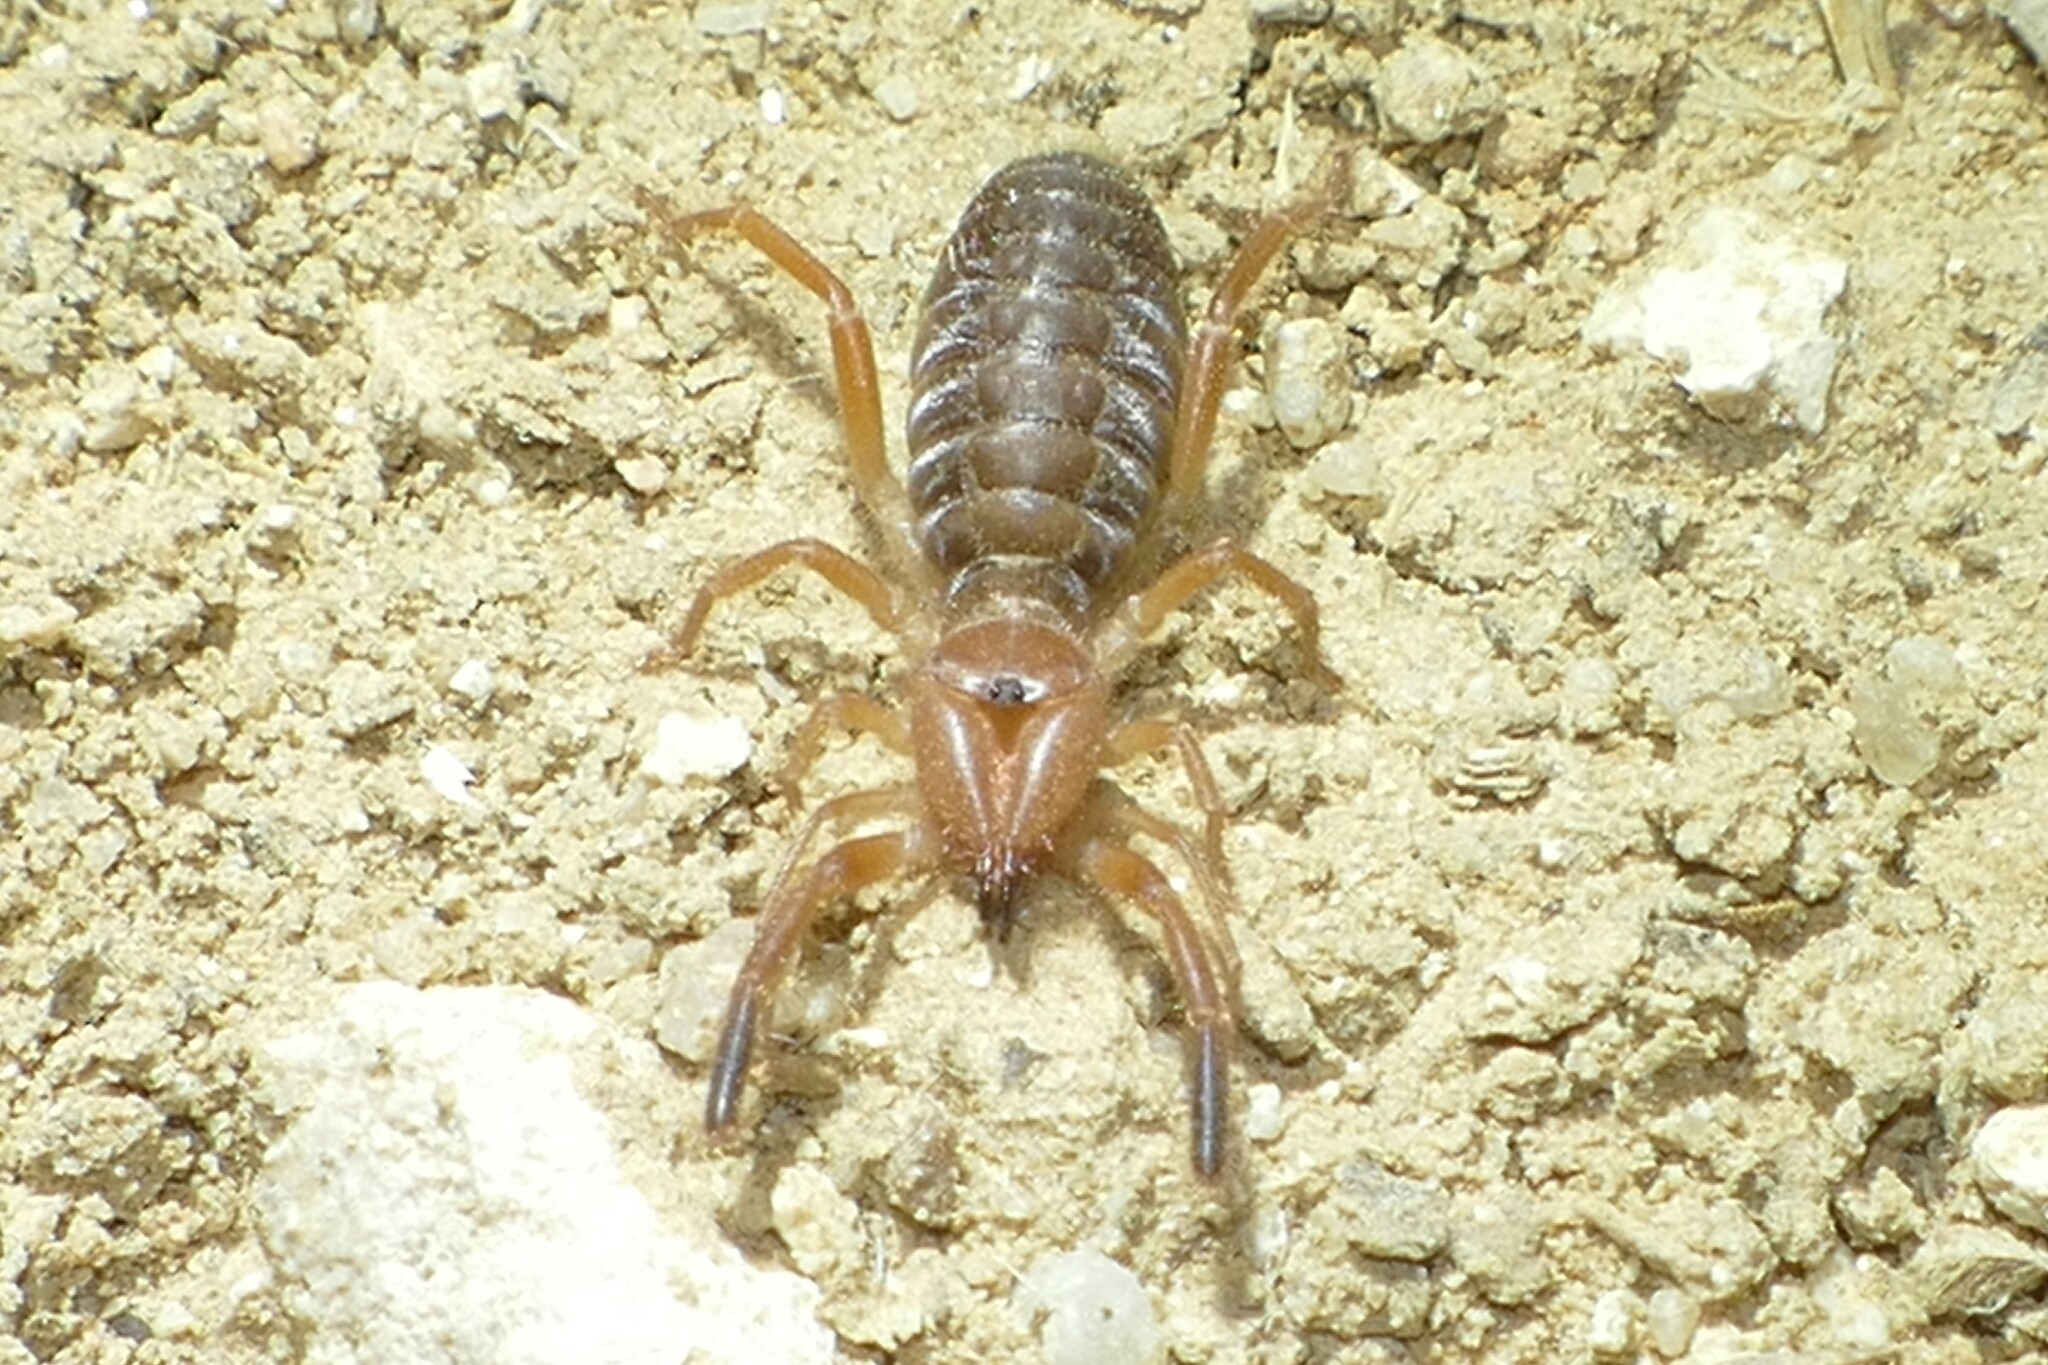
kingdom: Animalia
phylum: Arthropoda
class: Arachnida
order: Solifugae
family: Daesiidae
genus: Gluvia
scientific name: Gluvia dorsalis
